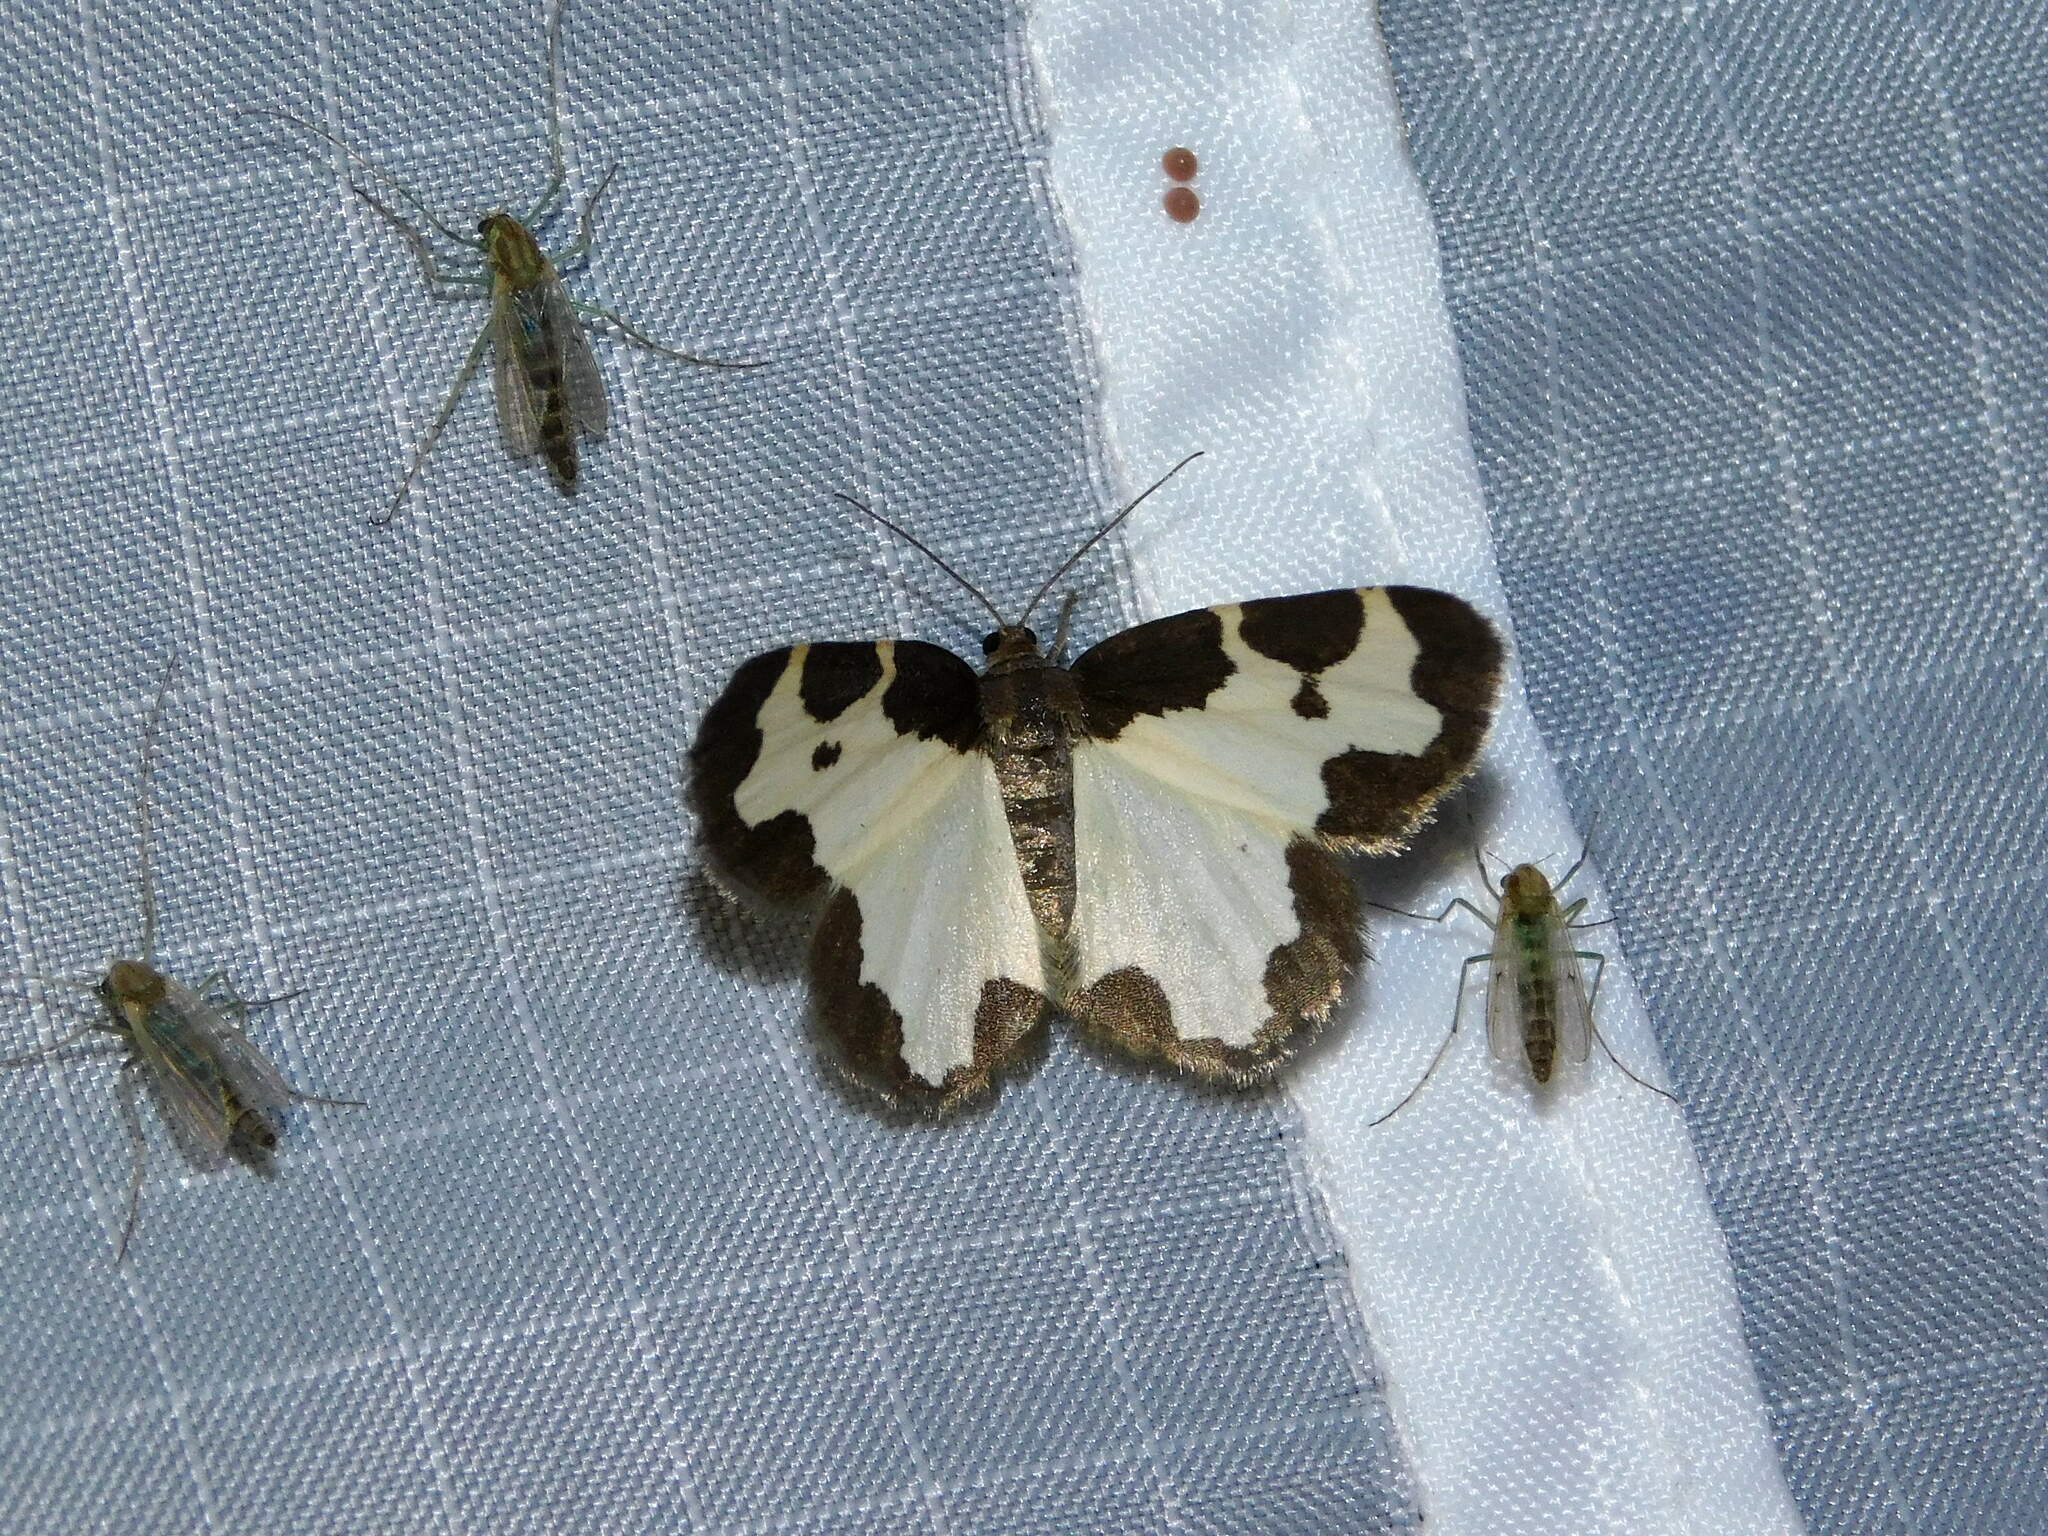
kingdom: Animalia
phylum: Arthropoda
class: Insecta
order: Lepidoptera
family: Geometridae
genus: Lomaspilis
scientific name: Lomaspilis marginata
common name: Clouded border
